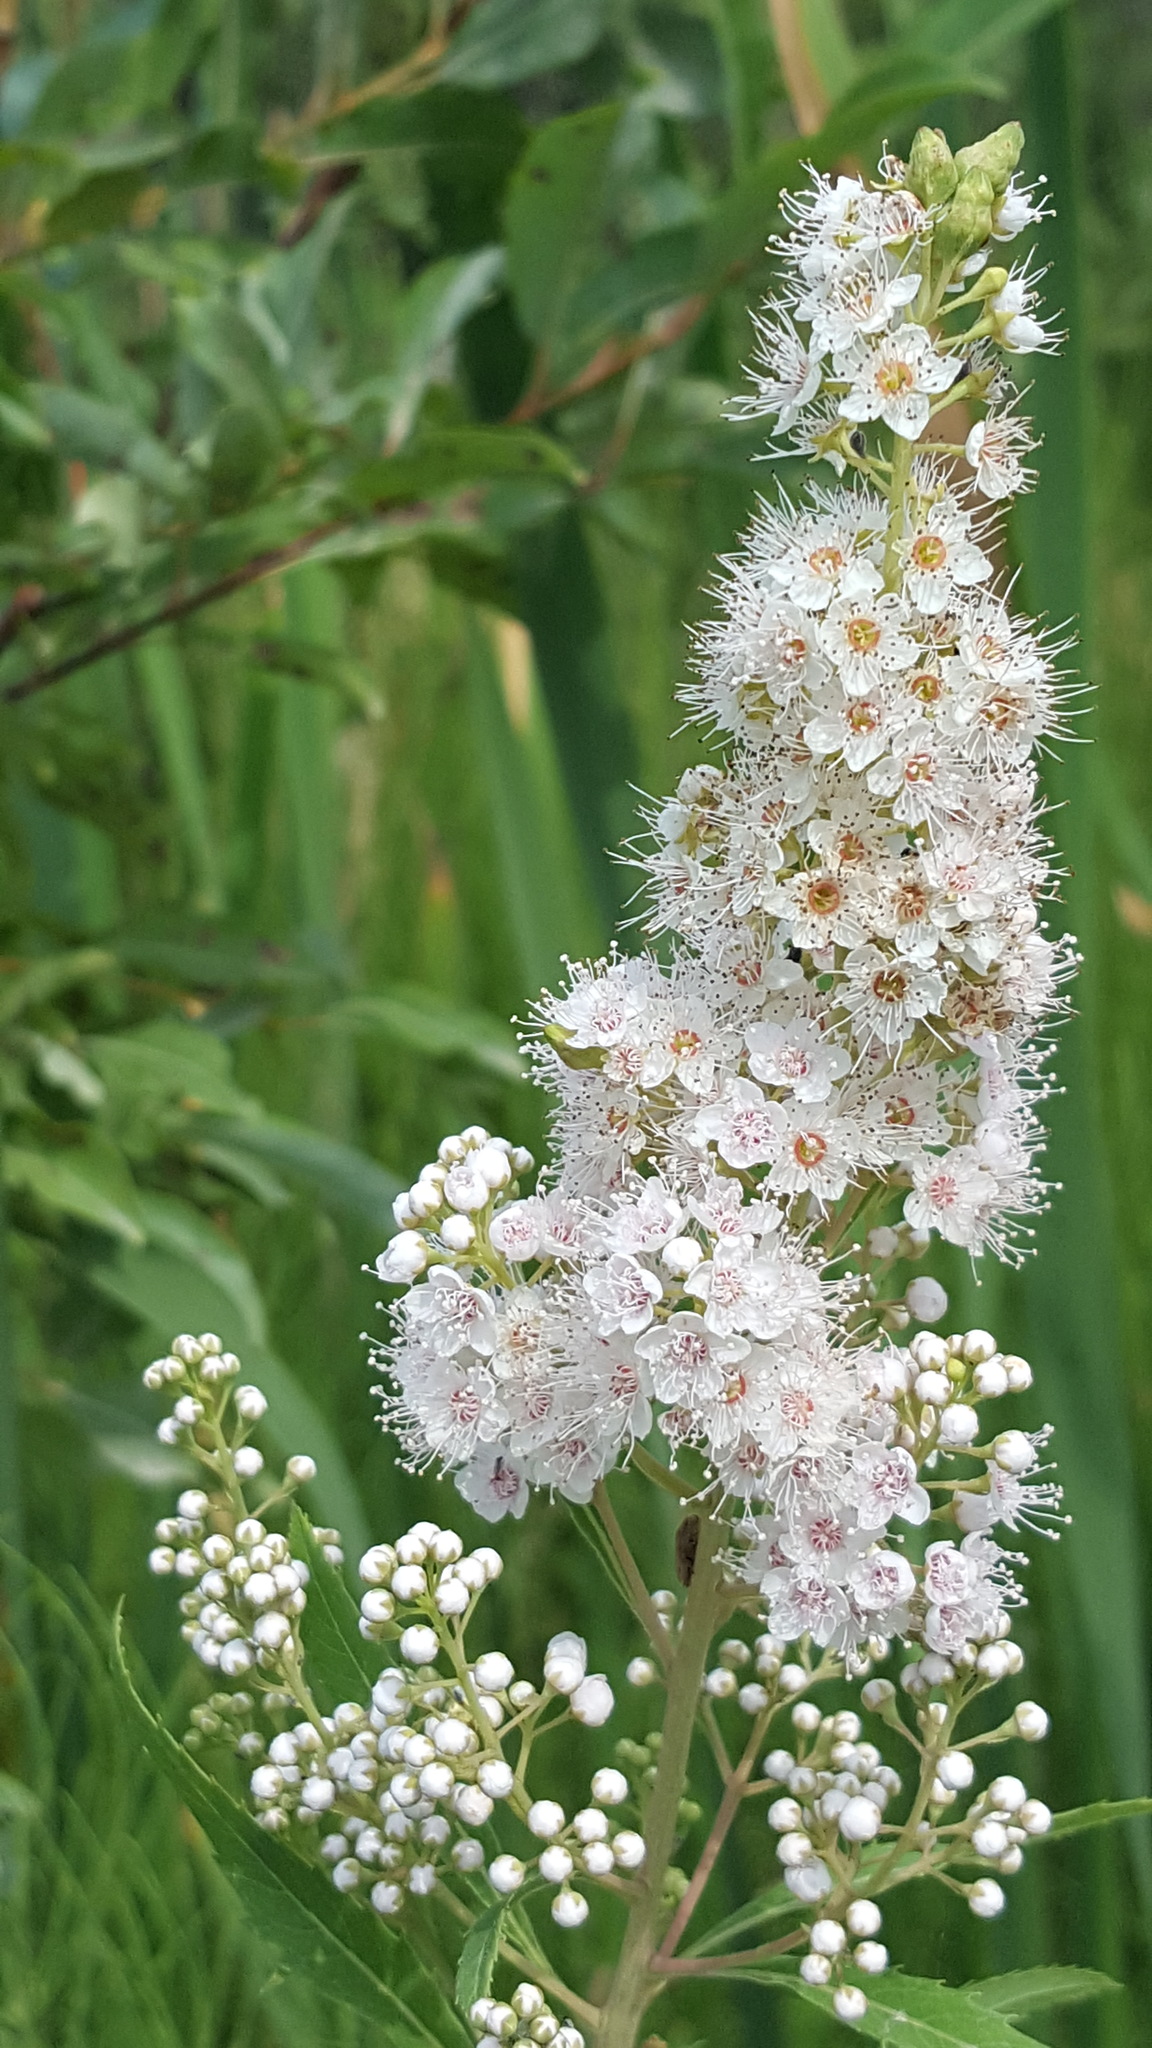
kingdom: Plantae
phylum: Tracheophyta
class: Magnoliopsida
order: Rosales
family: Rosaceae
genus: Spiraea
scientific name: Spiraea alba
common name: Pale bridewort
